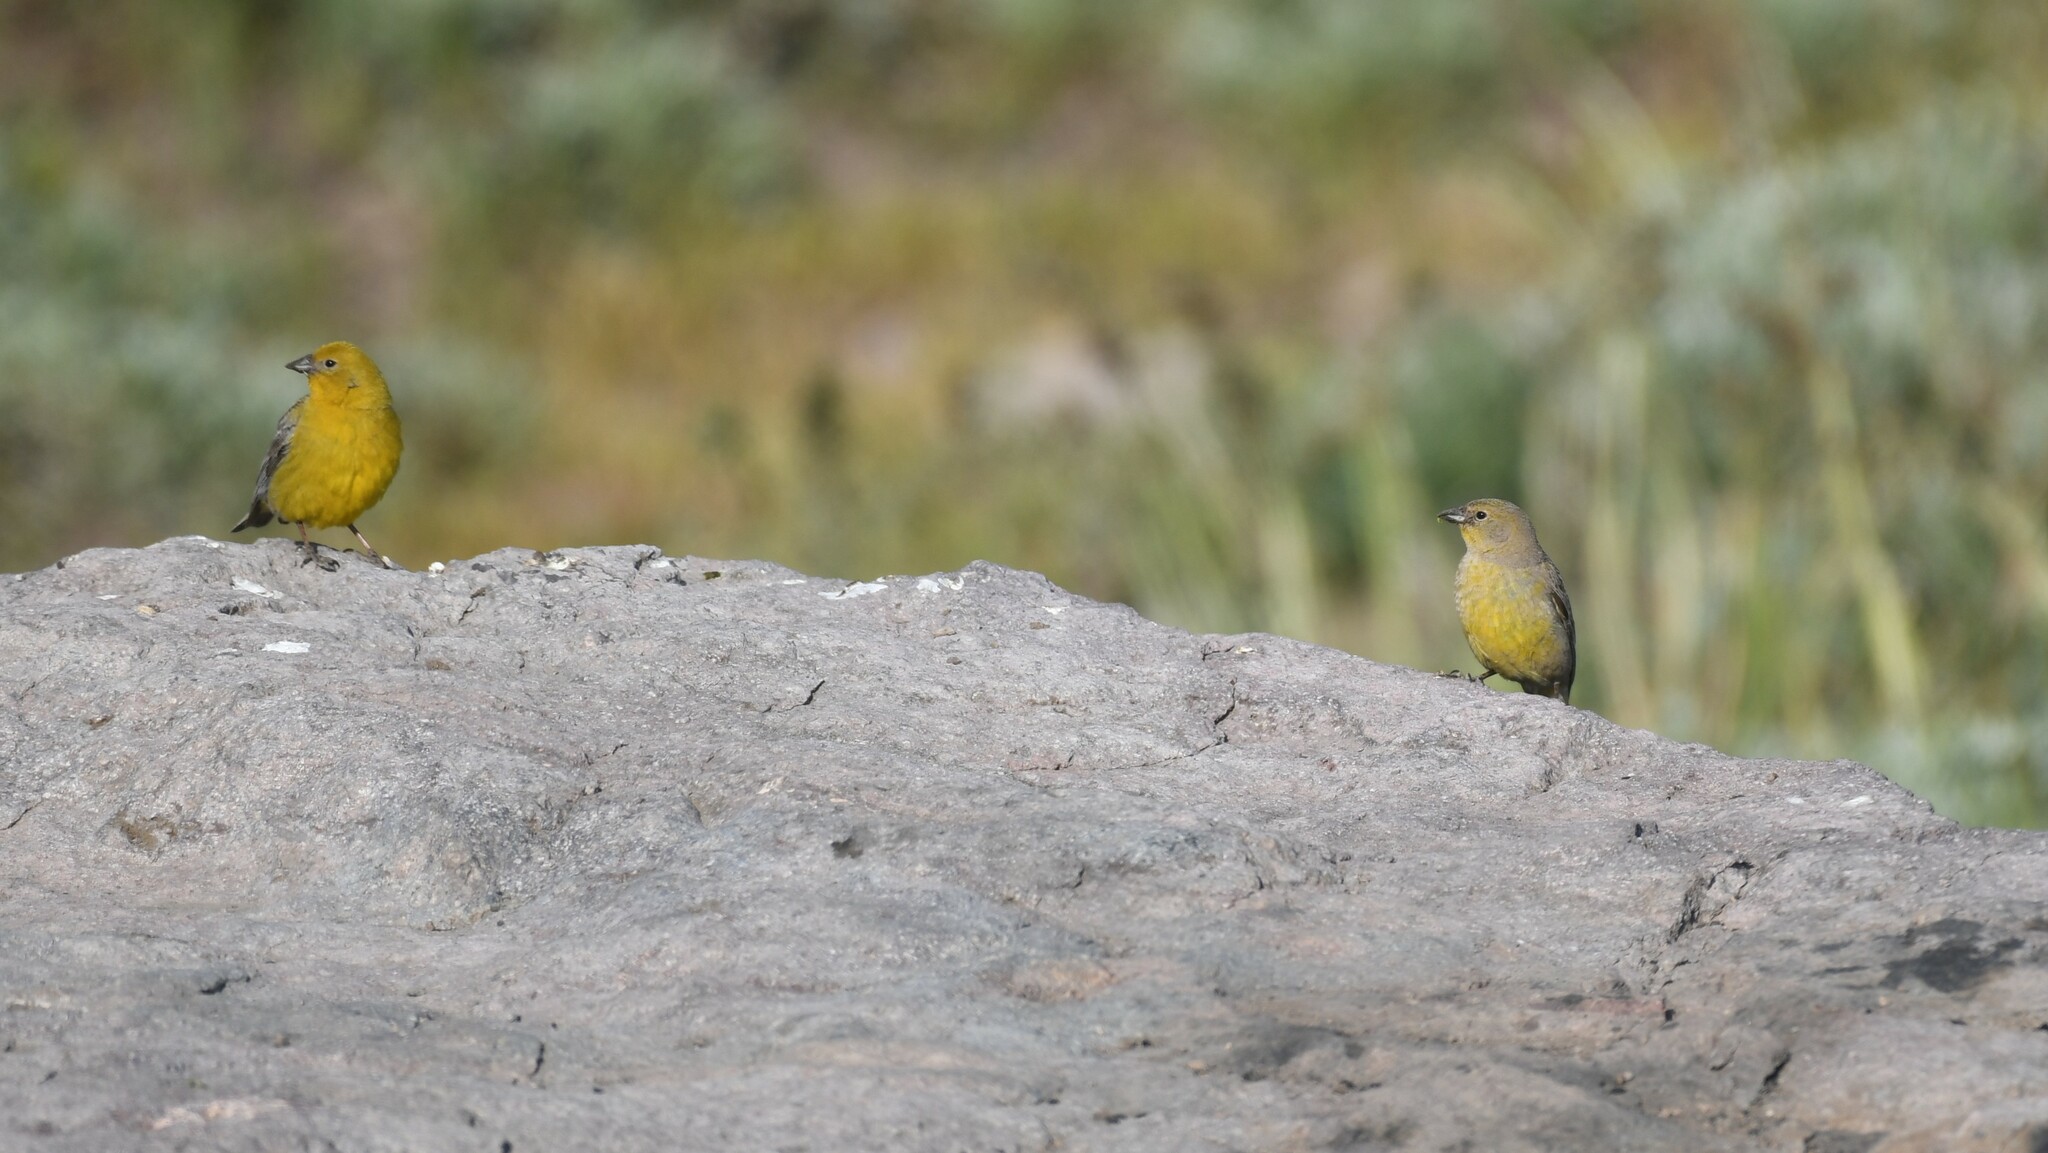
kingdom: Animalia
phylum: Chordata
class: Aves
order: Passeriformes
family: Thraupidae
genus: Sicalis
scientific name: Sicalis auriventris
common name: Greater yellow finch
